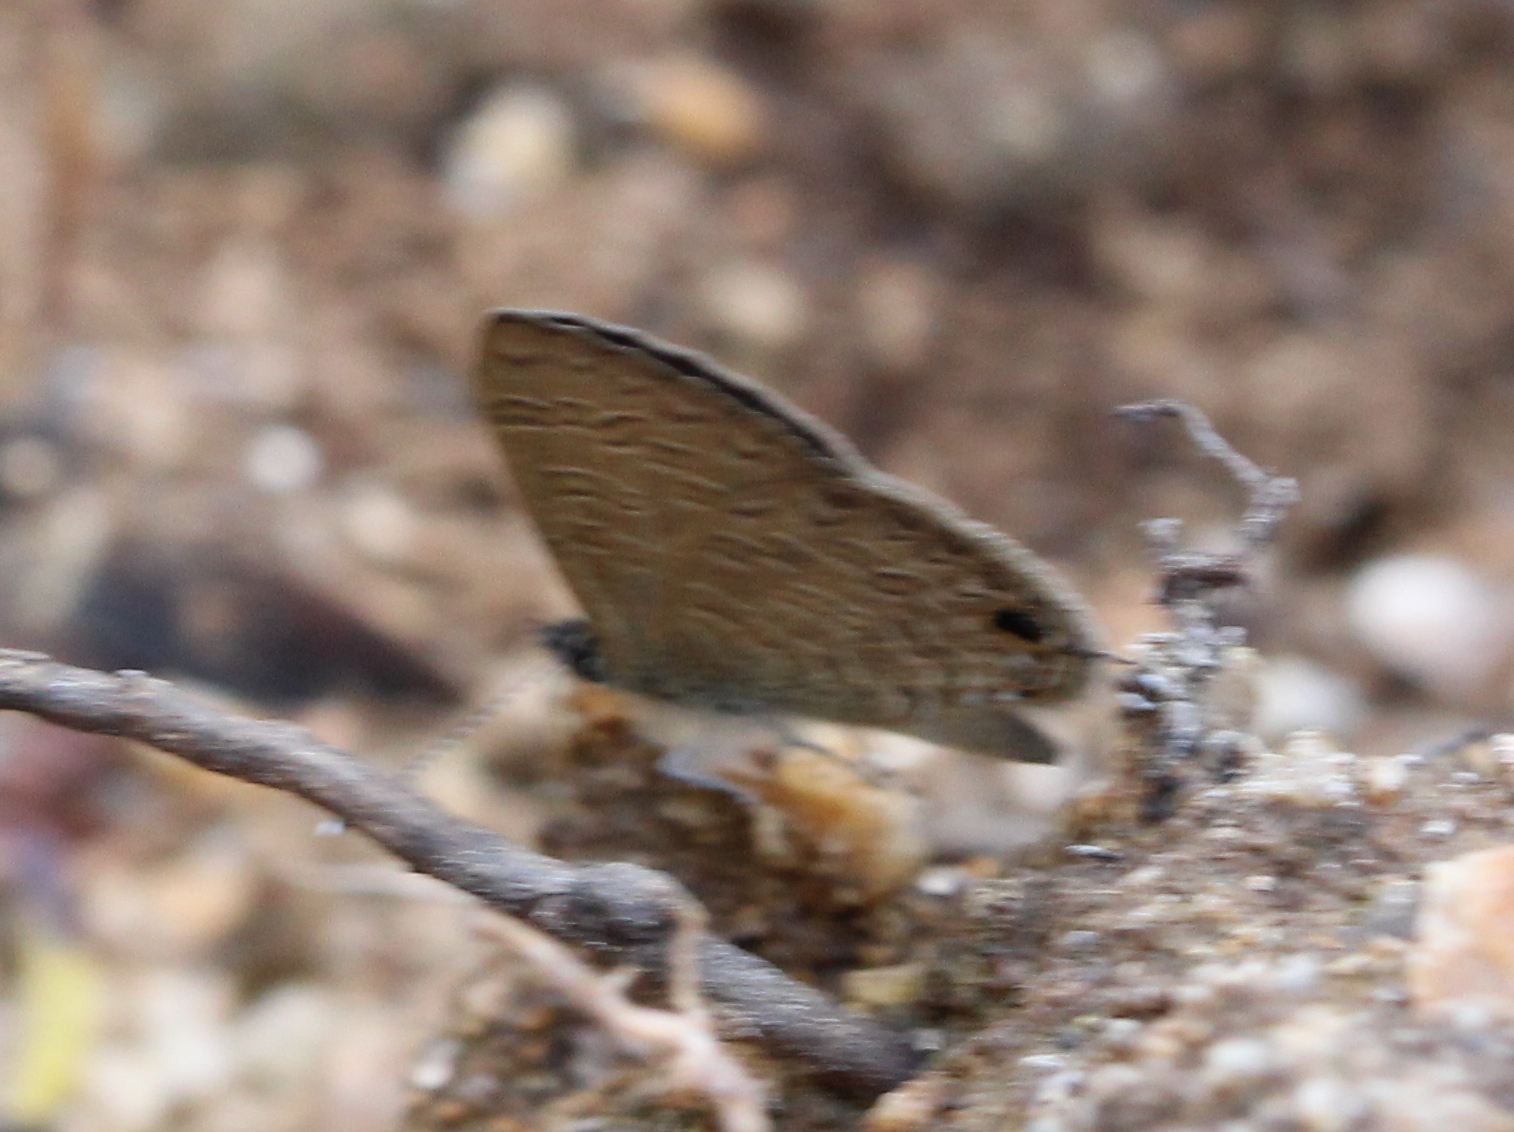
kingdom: Animalia
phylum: Arthropoda
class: Insecta
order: Lepidoptera
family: Lycaenidae
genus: Prosotas
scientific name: Prosotas nora
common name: Common line blue
